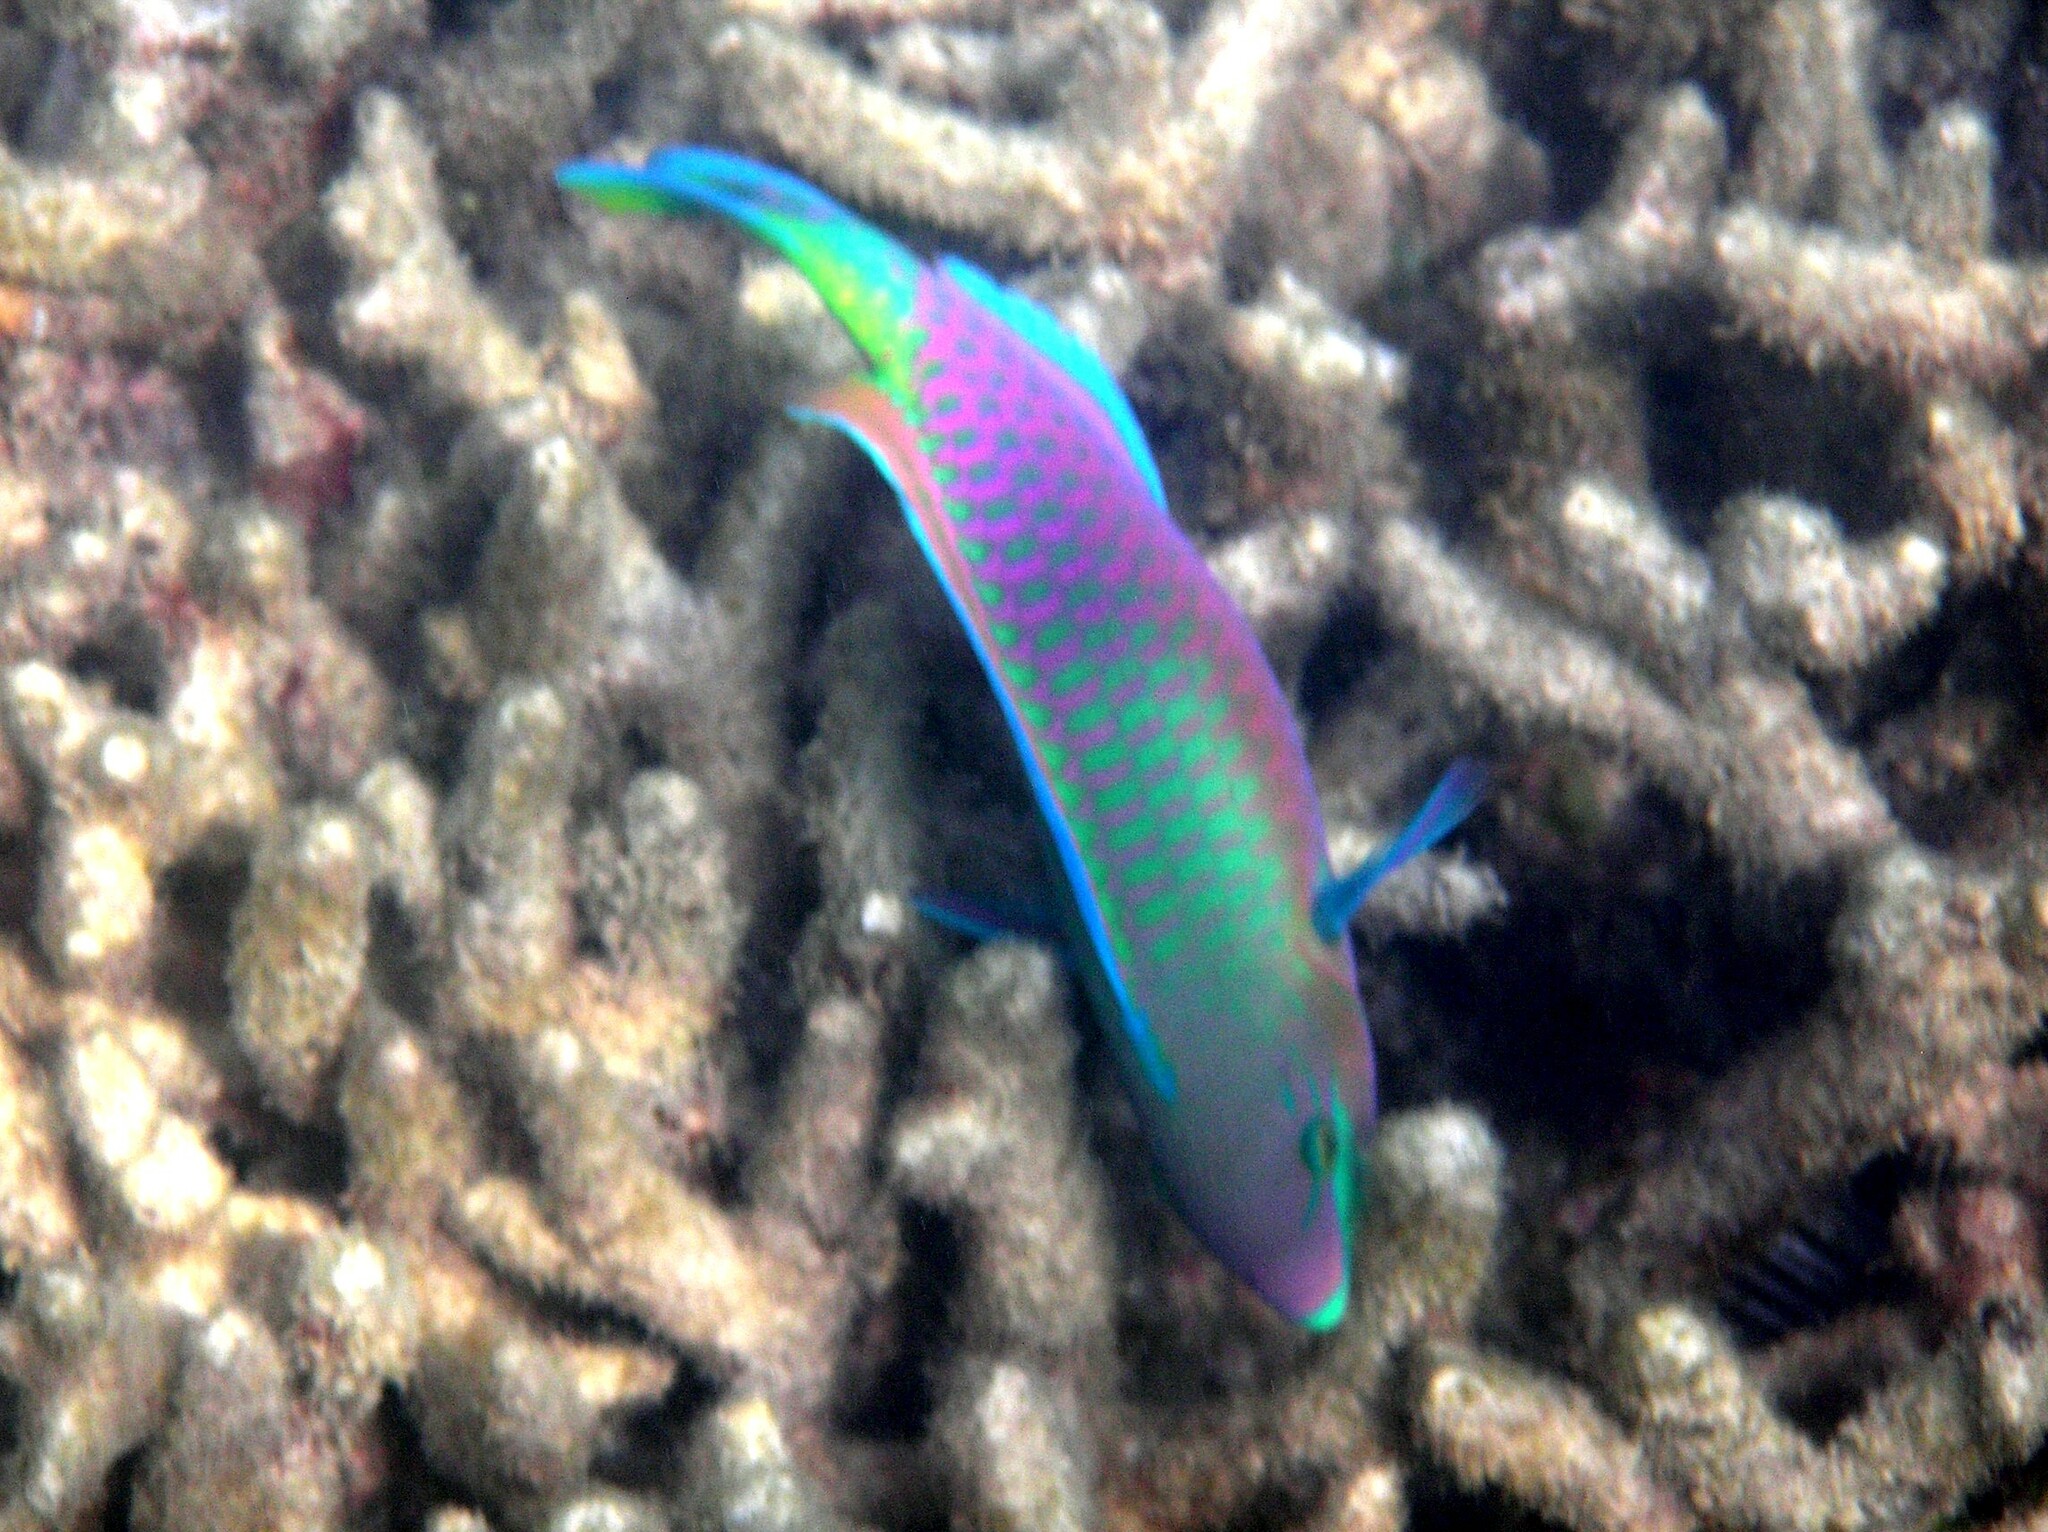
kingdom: Animalia
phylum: Chordata
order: Perciformes
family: Scaridae
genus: Scarus
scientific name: Scarus quoyi
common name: Quoy's parrotfish
